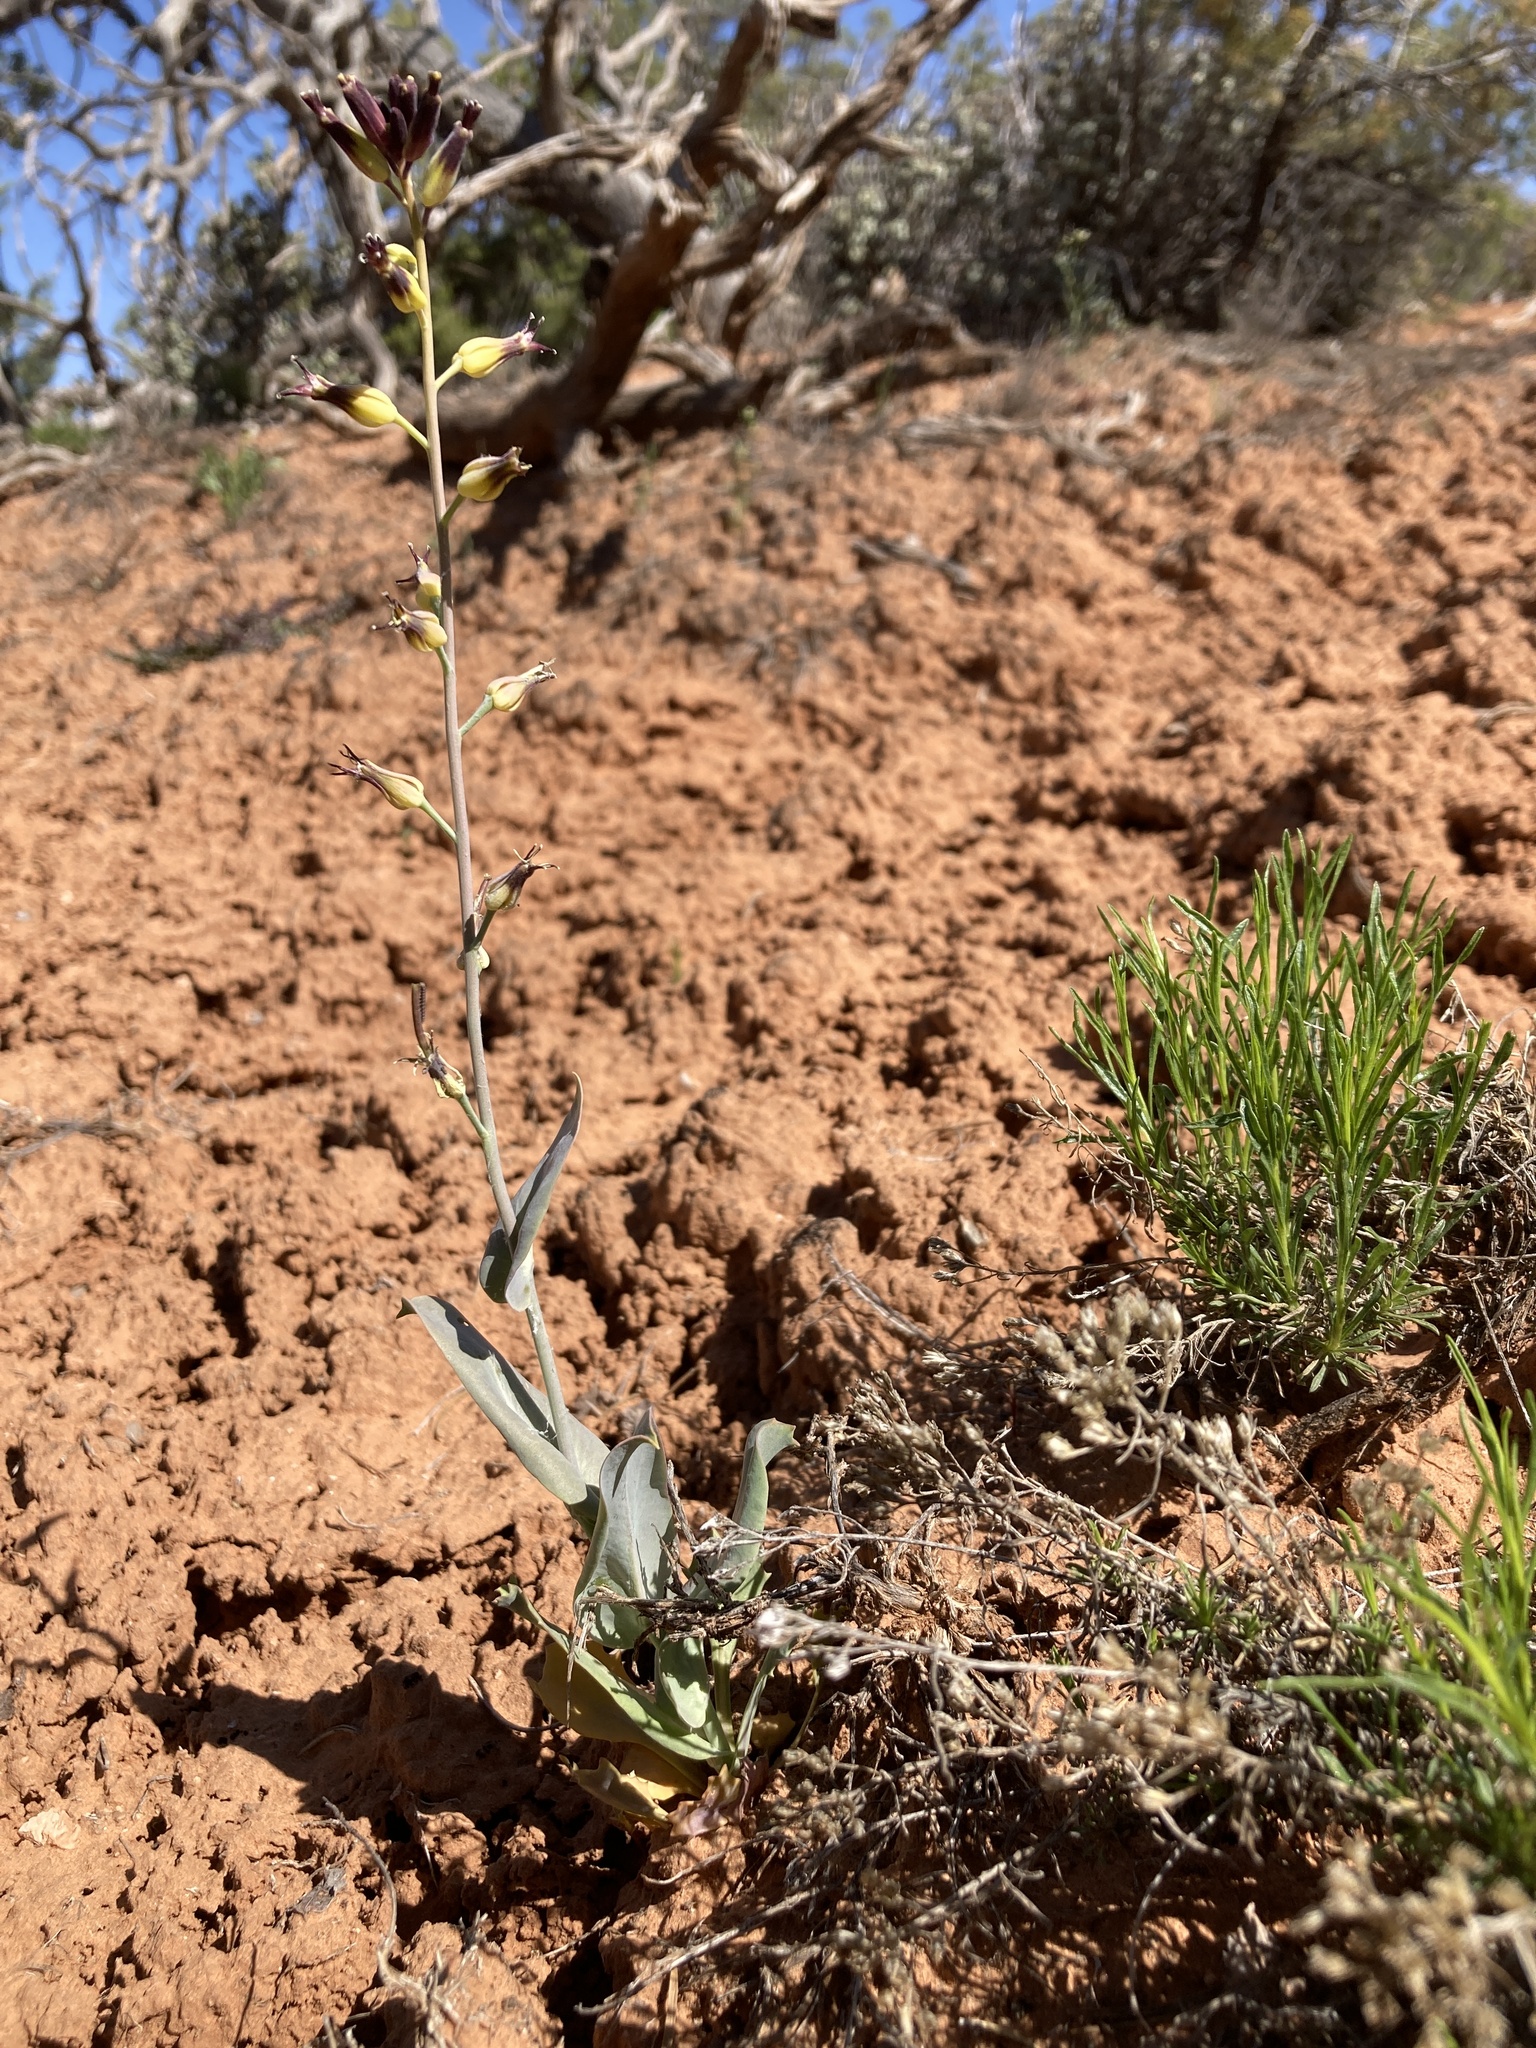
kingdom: Plantae
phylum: Tracheophyta
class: Magnoliopsida
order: Brassicales
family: Brassicaceae
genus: Streptanthus
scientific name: Streptanthus cordatus
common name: Heart-leaf jewel-flower
